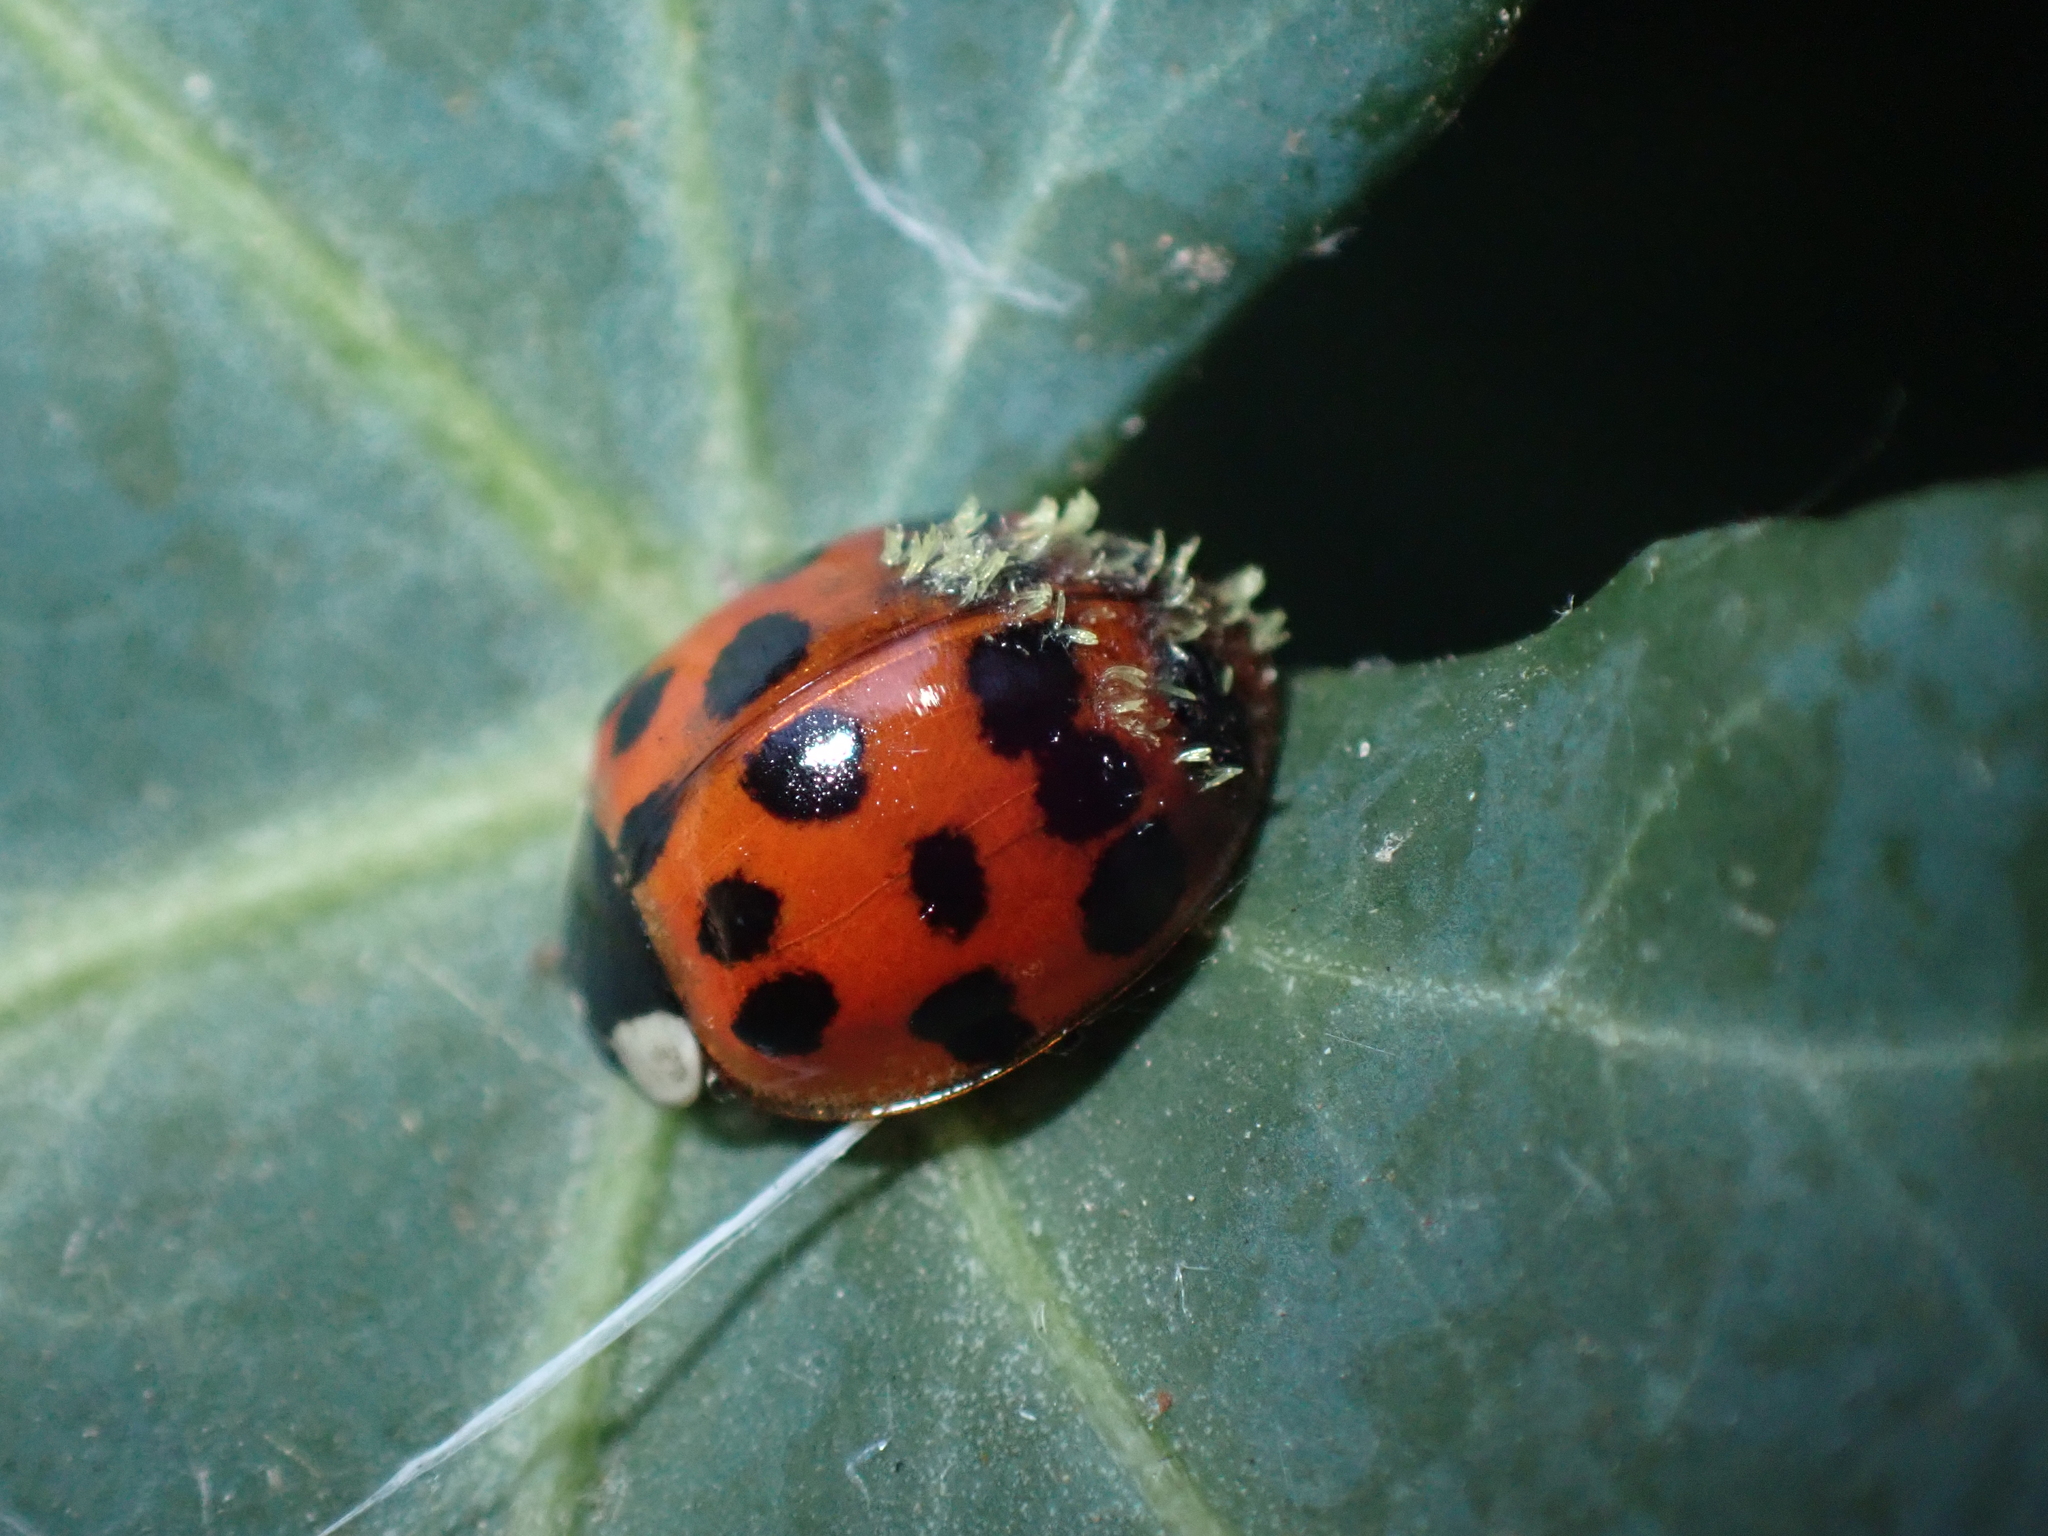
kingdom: Fungi
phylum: Ascomycota
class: Laboulbeniomycetes
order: Laboulbeniales
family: Laboulbeniaceae
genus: Hesperomyces
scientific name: Hesperomyces harmoniae
